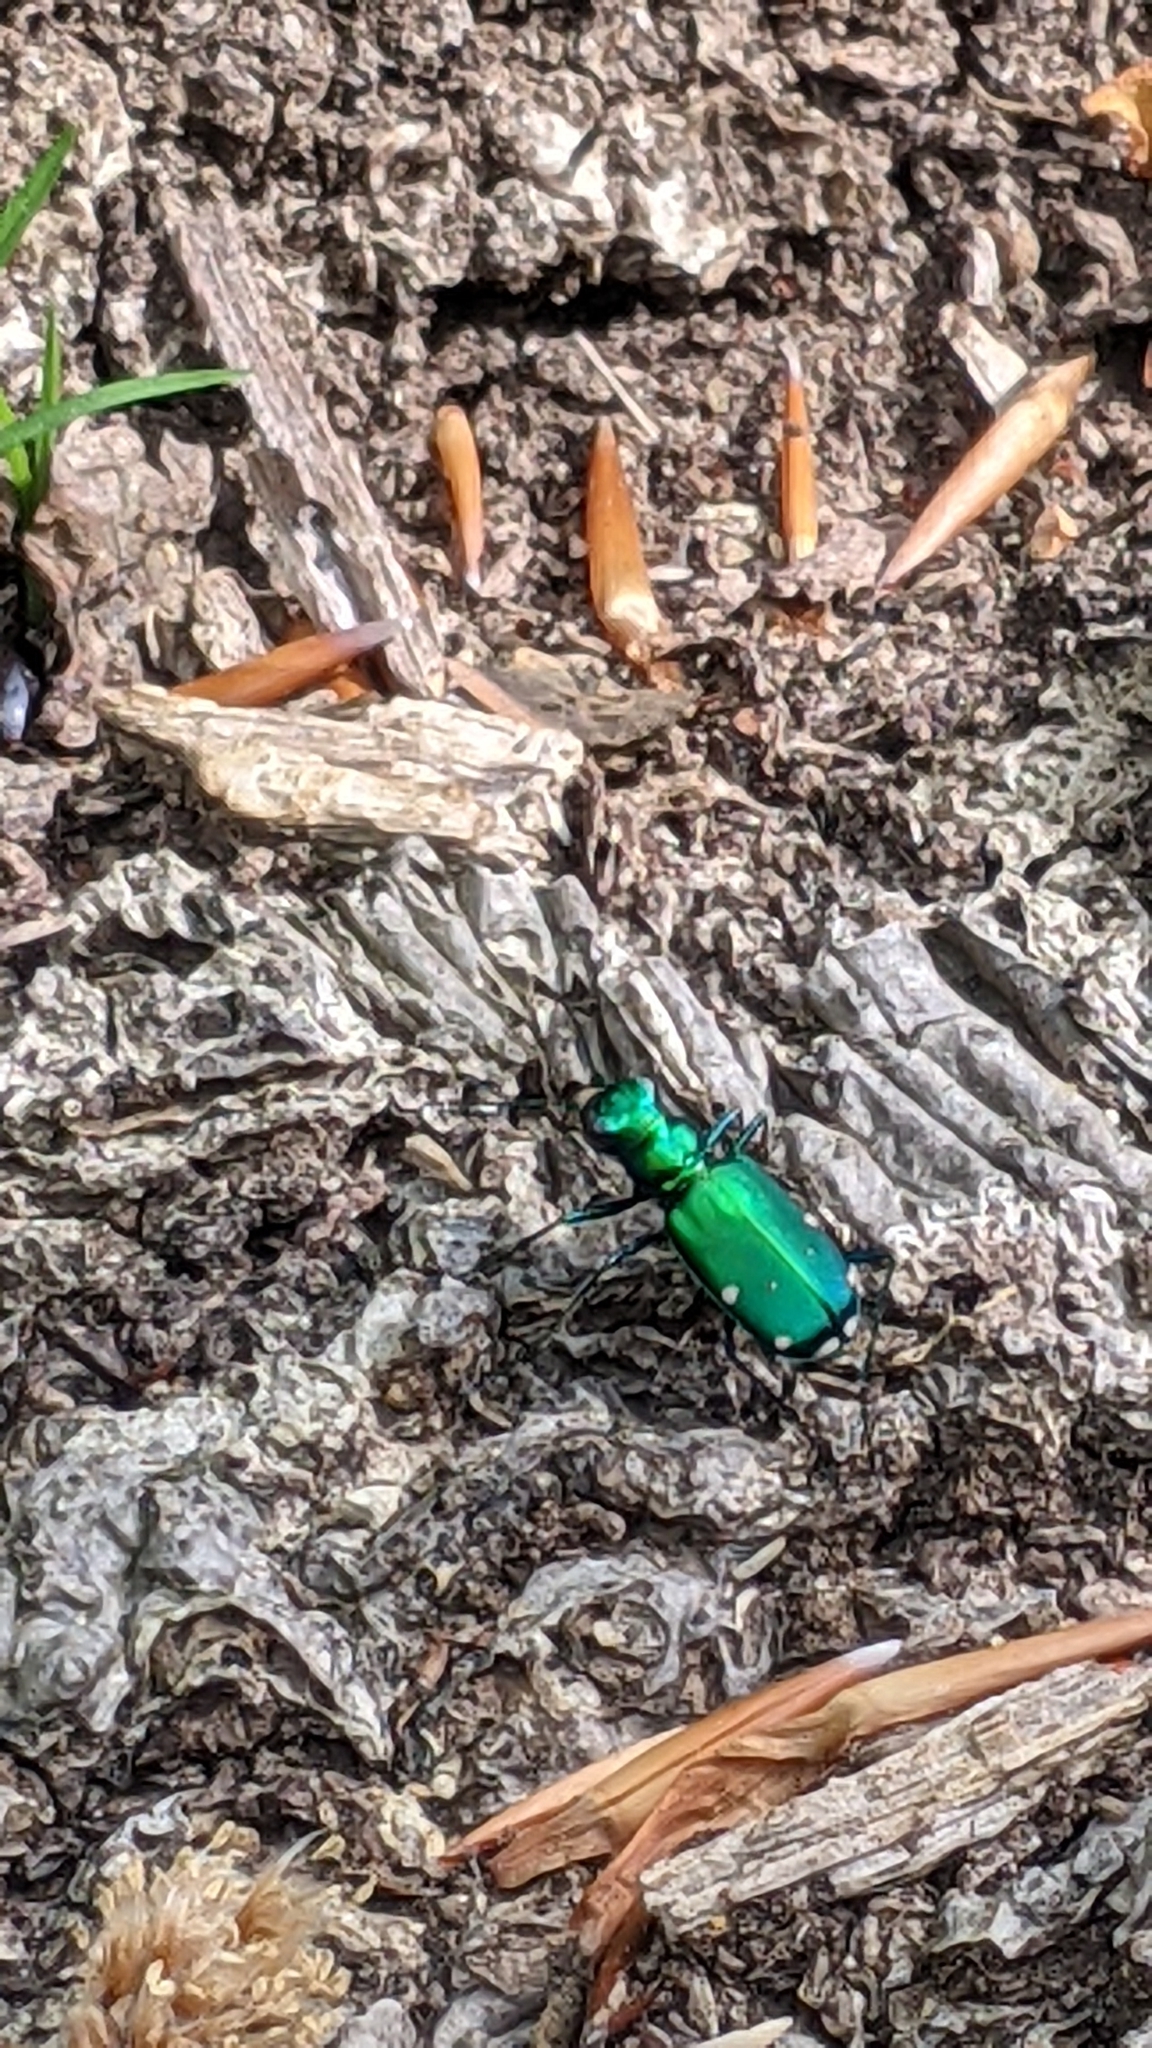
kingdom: Animalia
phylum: Arthropoda
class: Insecta
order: Coleoptera
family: Carabidae
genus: Cicindela
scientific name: Cicindela sexguttata
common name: Six-spotted tiger beetle
